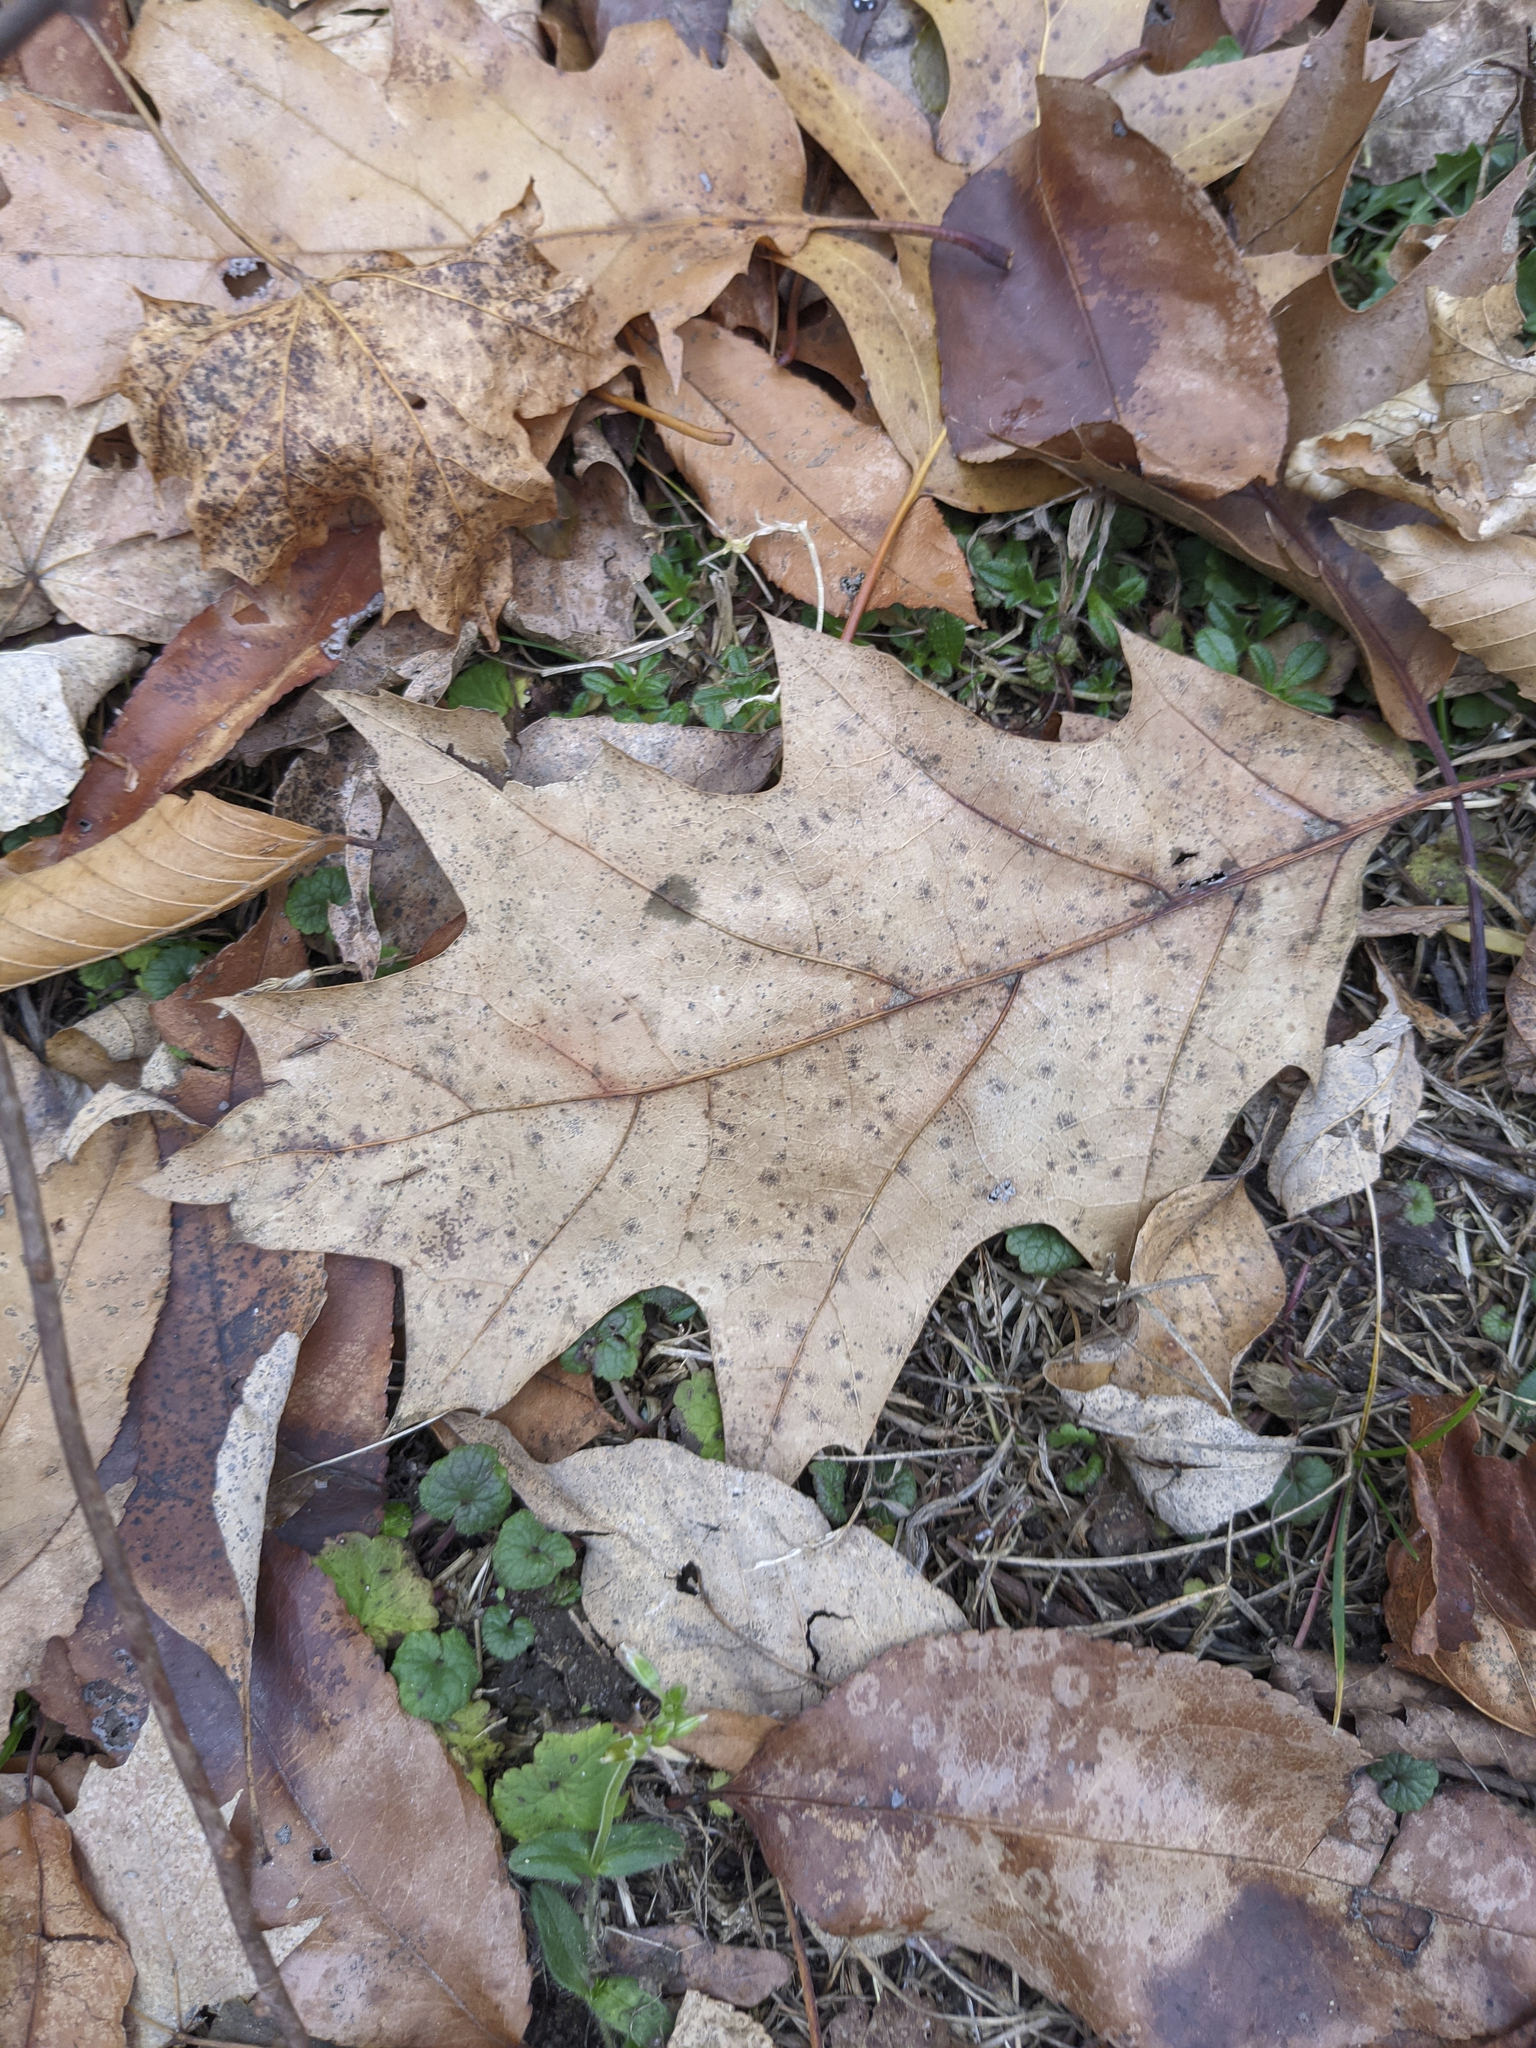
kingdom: Plantae
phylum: Tracheophyta
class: Magnoliopsida
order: Fagales
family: Fagaceae
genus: Quercus
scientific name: Quercus rubra
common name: Red oak
